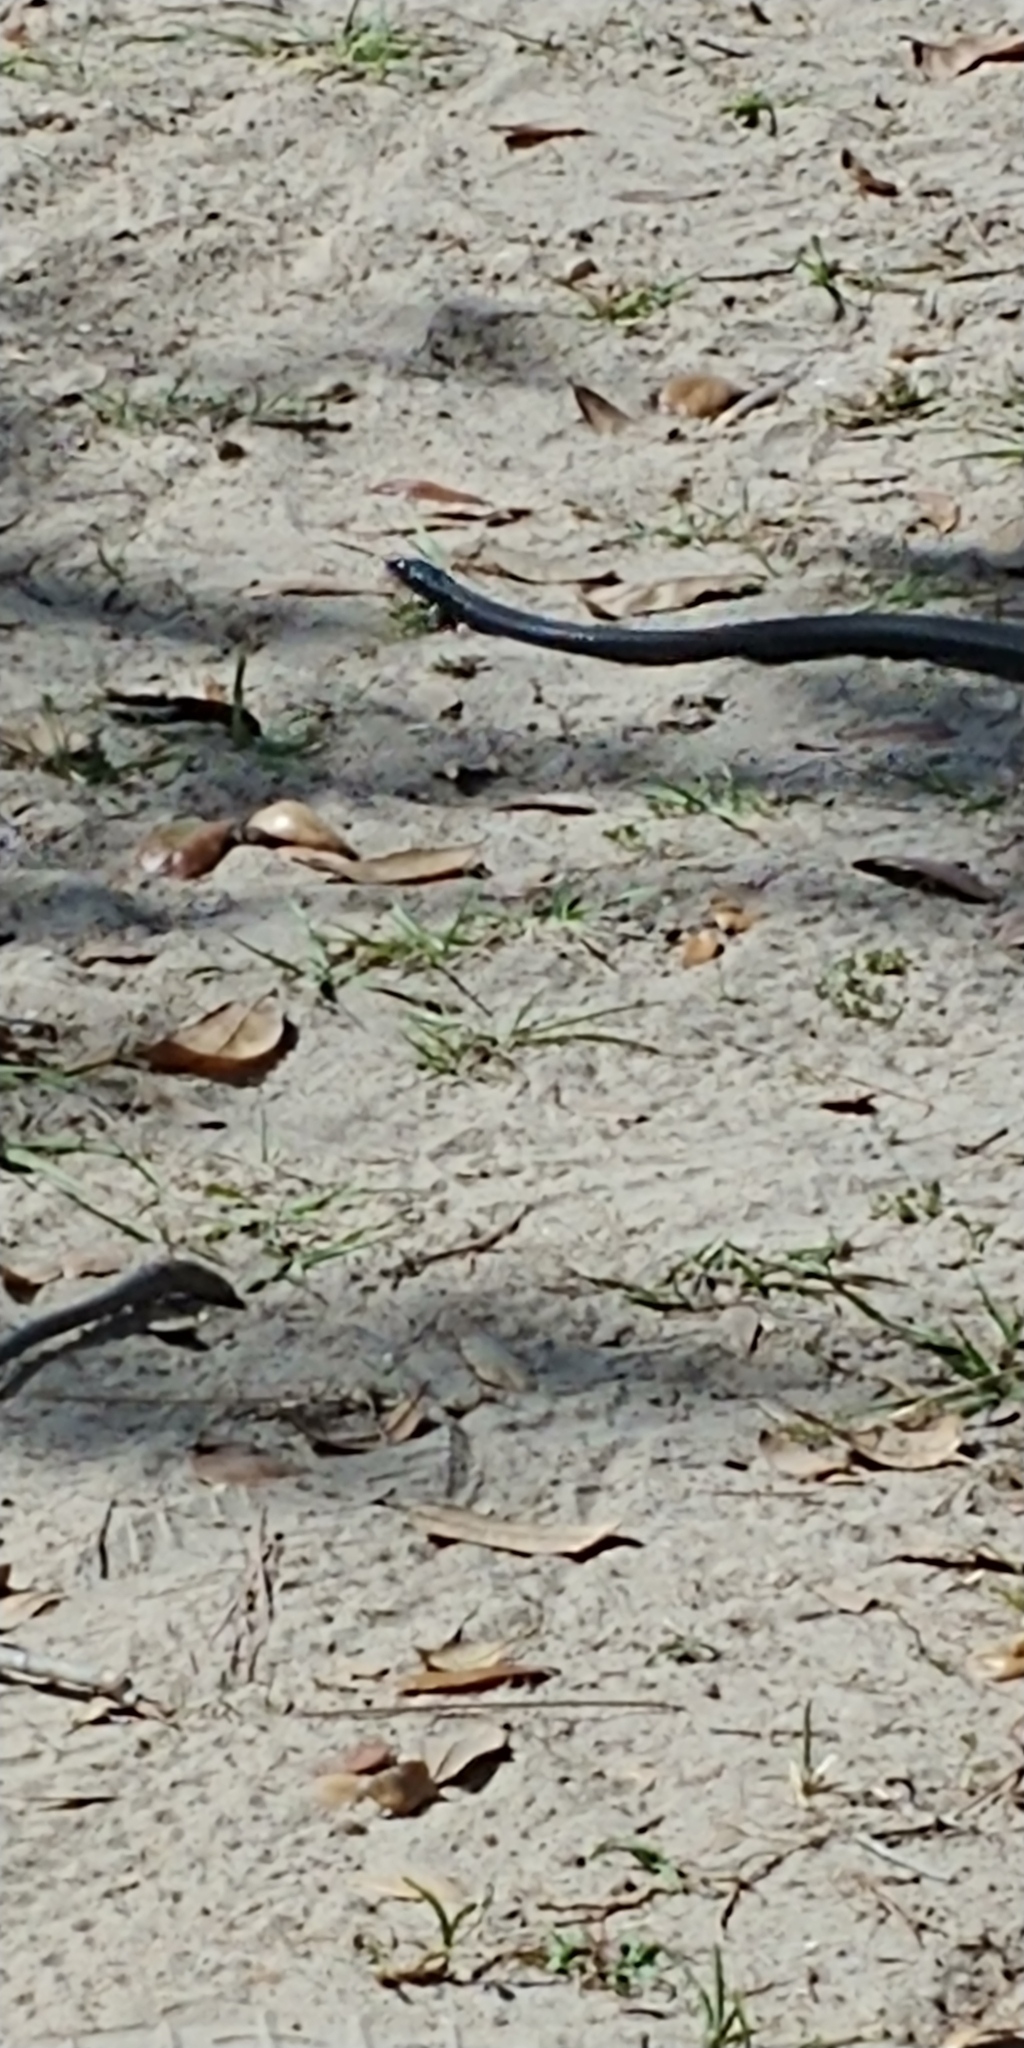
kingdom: Animalia
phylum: Chordata
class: Squamata
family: Colubridae
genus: Coluber
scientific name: Coluber constrictor
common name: Eastern racer
